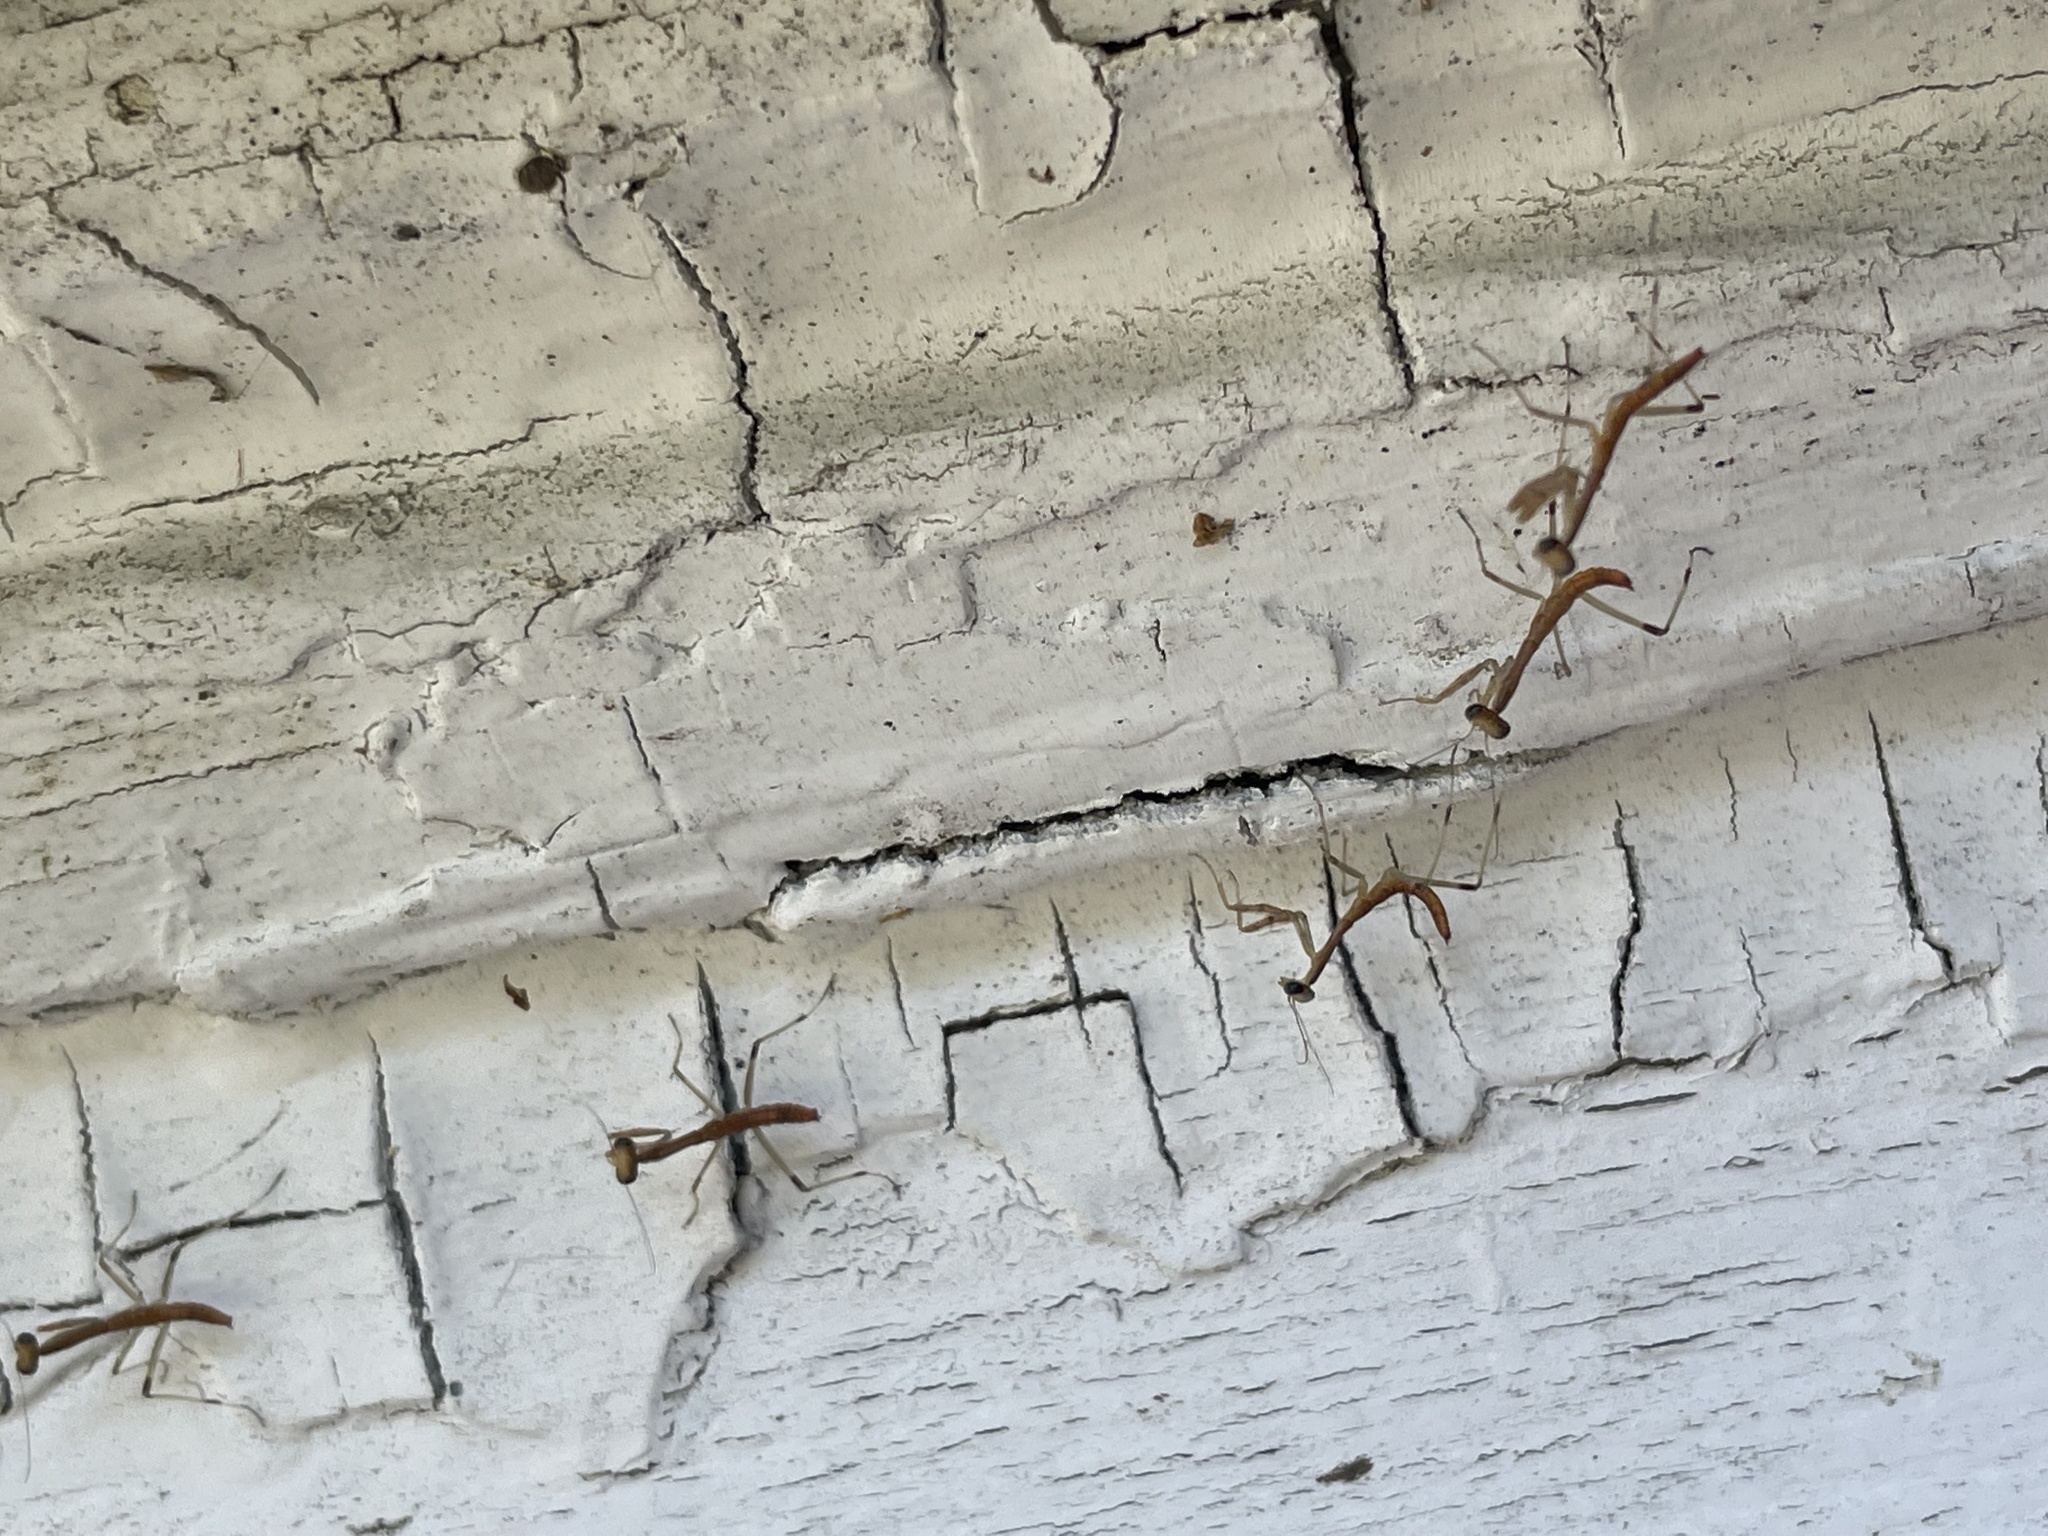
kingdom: Animalia
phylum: Arthropoda
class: Insecta
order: Mantodea
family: Mantidae
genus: Stagmomantis
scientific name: Stagmomantis carolina
